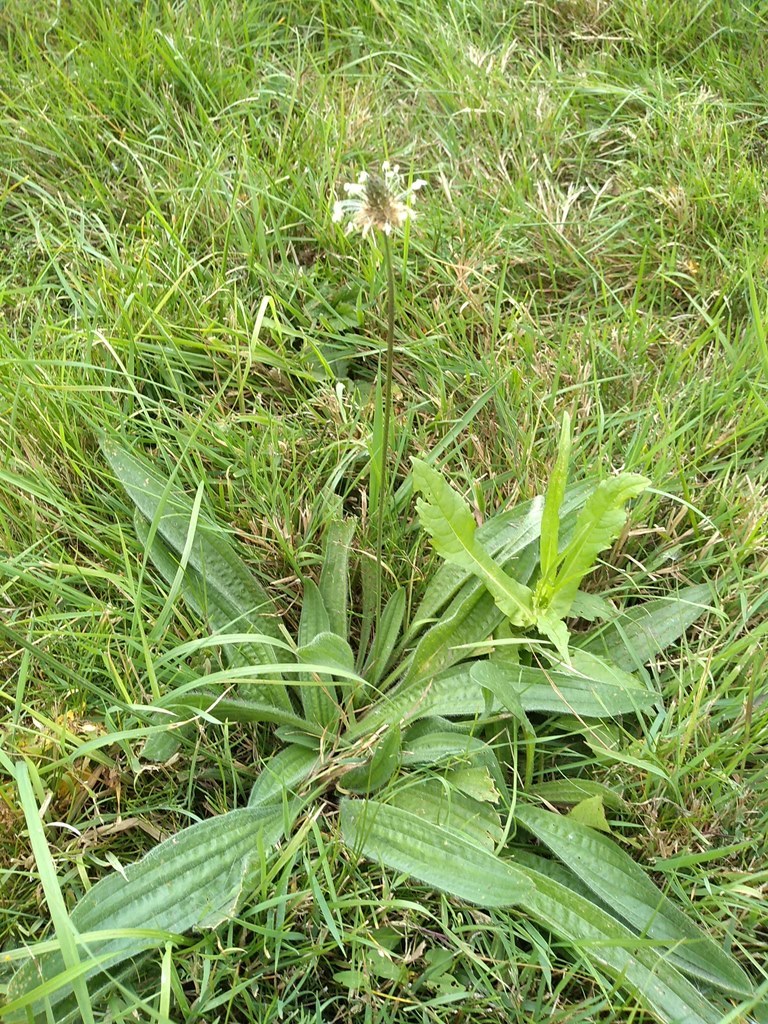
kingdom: Plantae
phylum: Tracheophyta
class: Magnoliopsida
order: Lamiales
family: Plantaginaceae
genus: Plantago
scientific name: Plantago lanceolata
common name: Ribwort plantain
